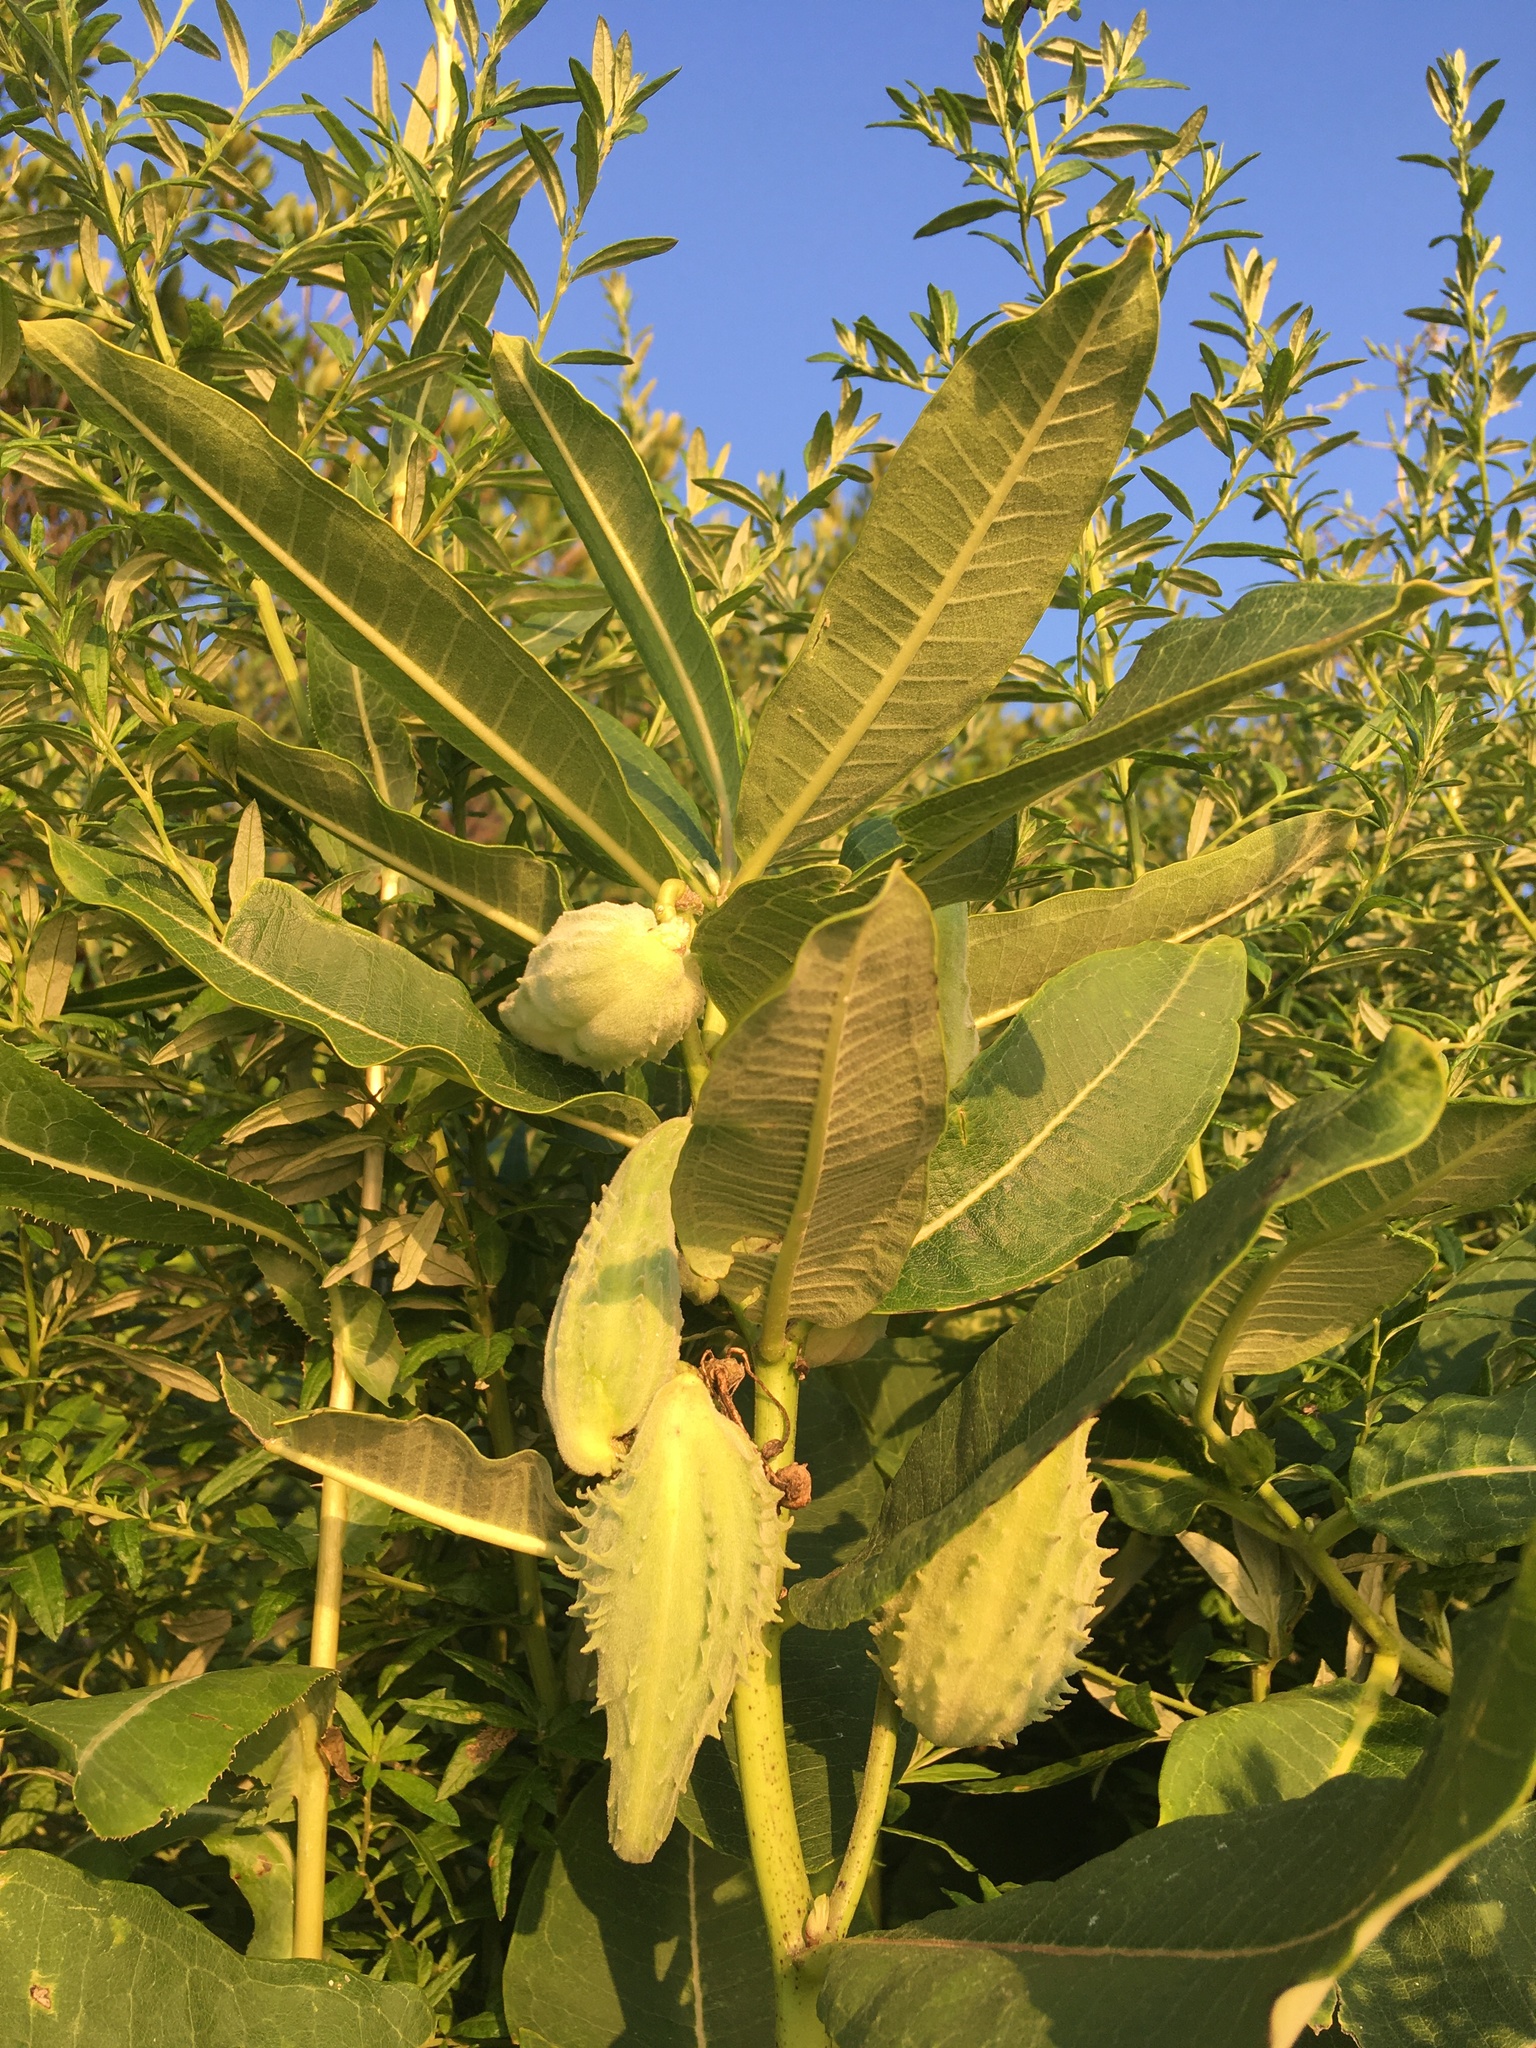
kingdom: Plantae
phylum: Tracheophyta
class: Magnoliopsida
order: Gentianales
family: Apocynaceae
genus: Asclepias
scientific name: Asclepias syriaca
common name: Common milkweed
